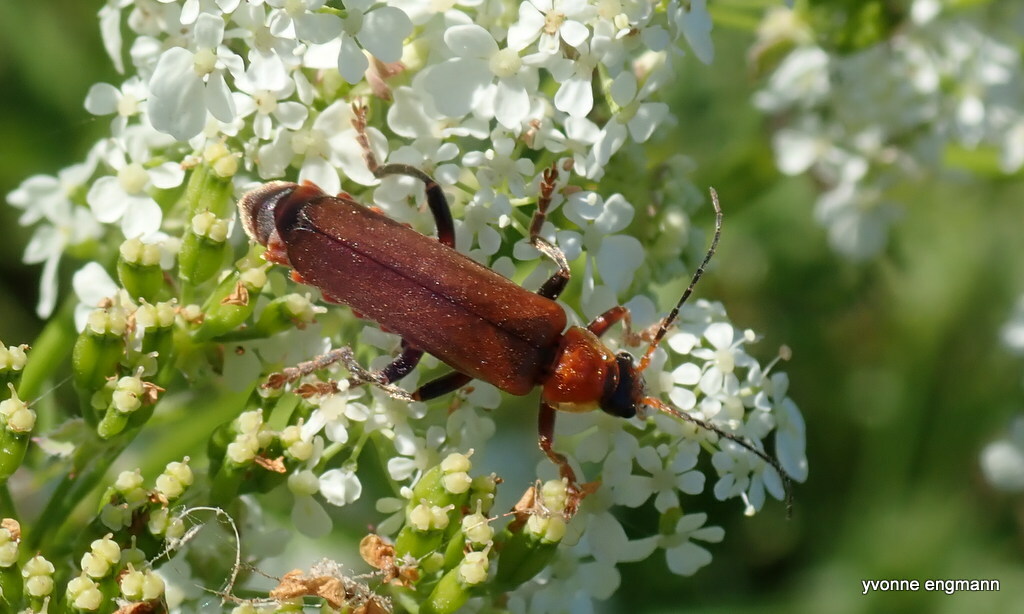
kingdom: Animalia
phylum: Arthropoda
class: Insecta
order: Coleoptera
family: Cantharidae
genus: Cantharis
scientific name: Cantharis livida
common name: Livid soldier beetle
